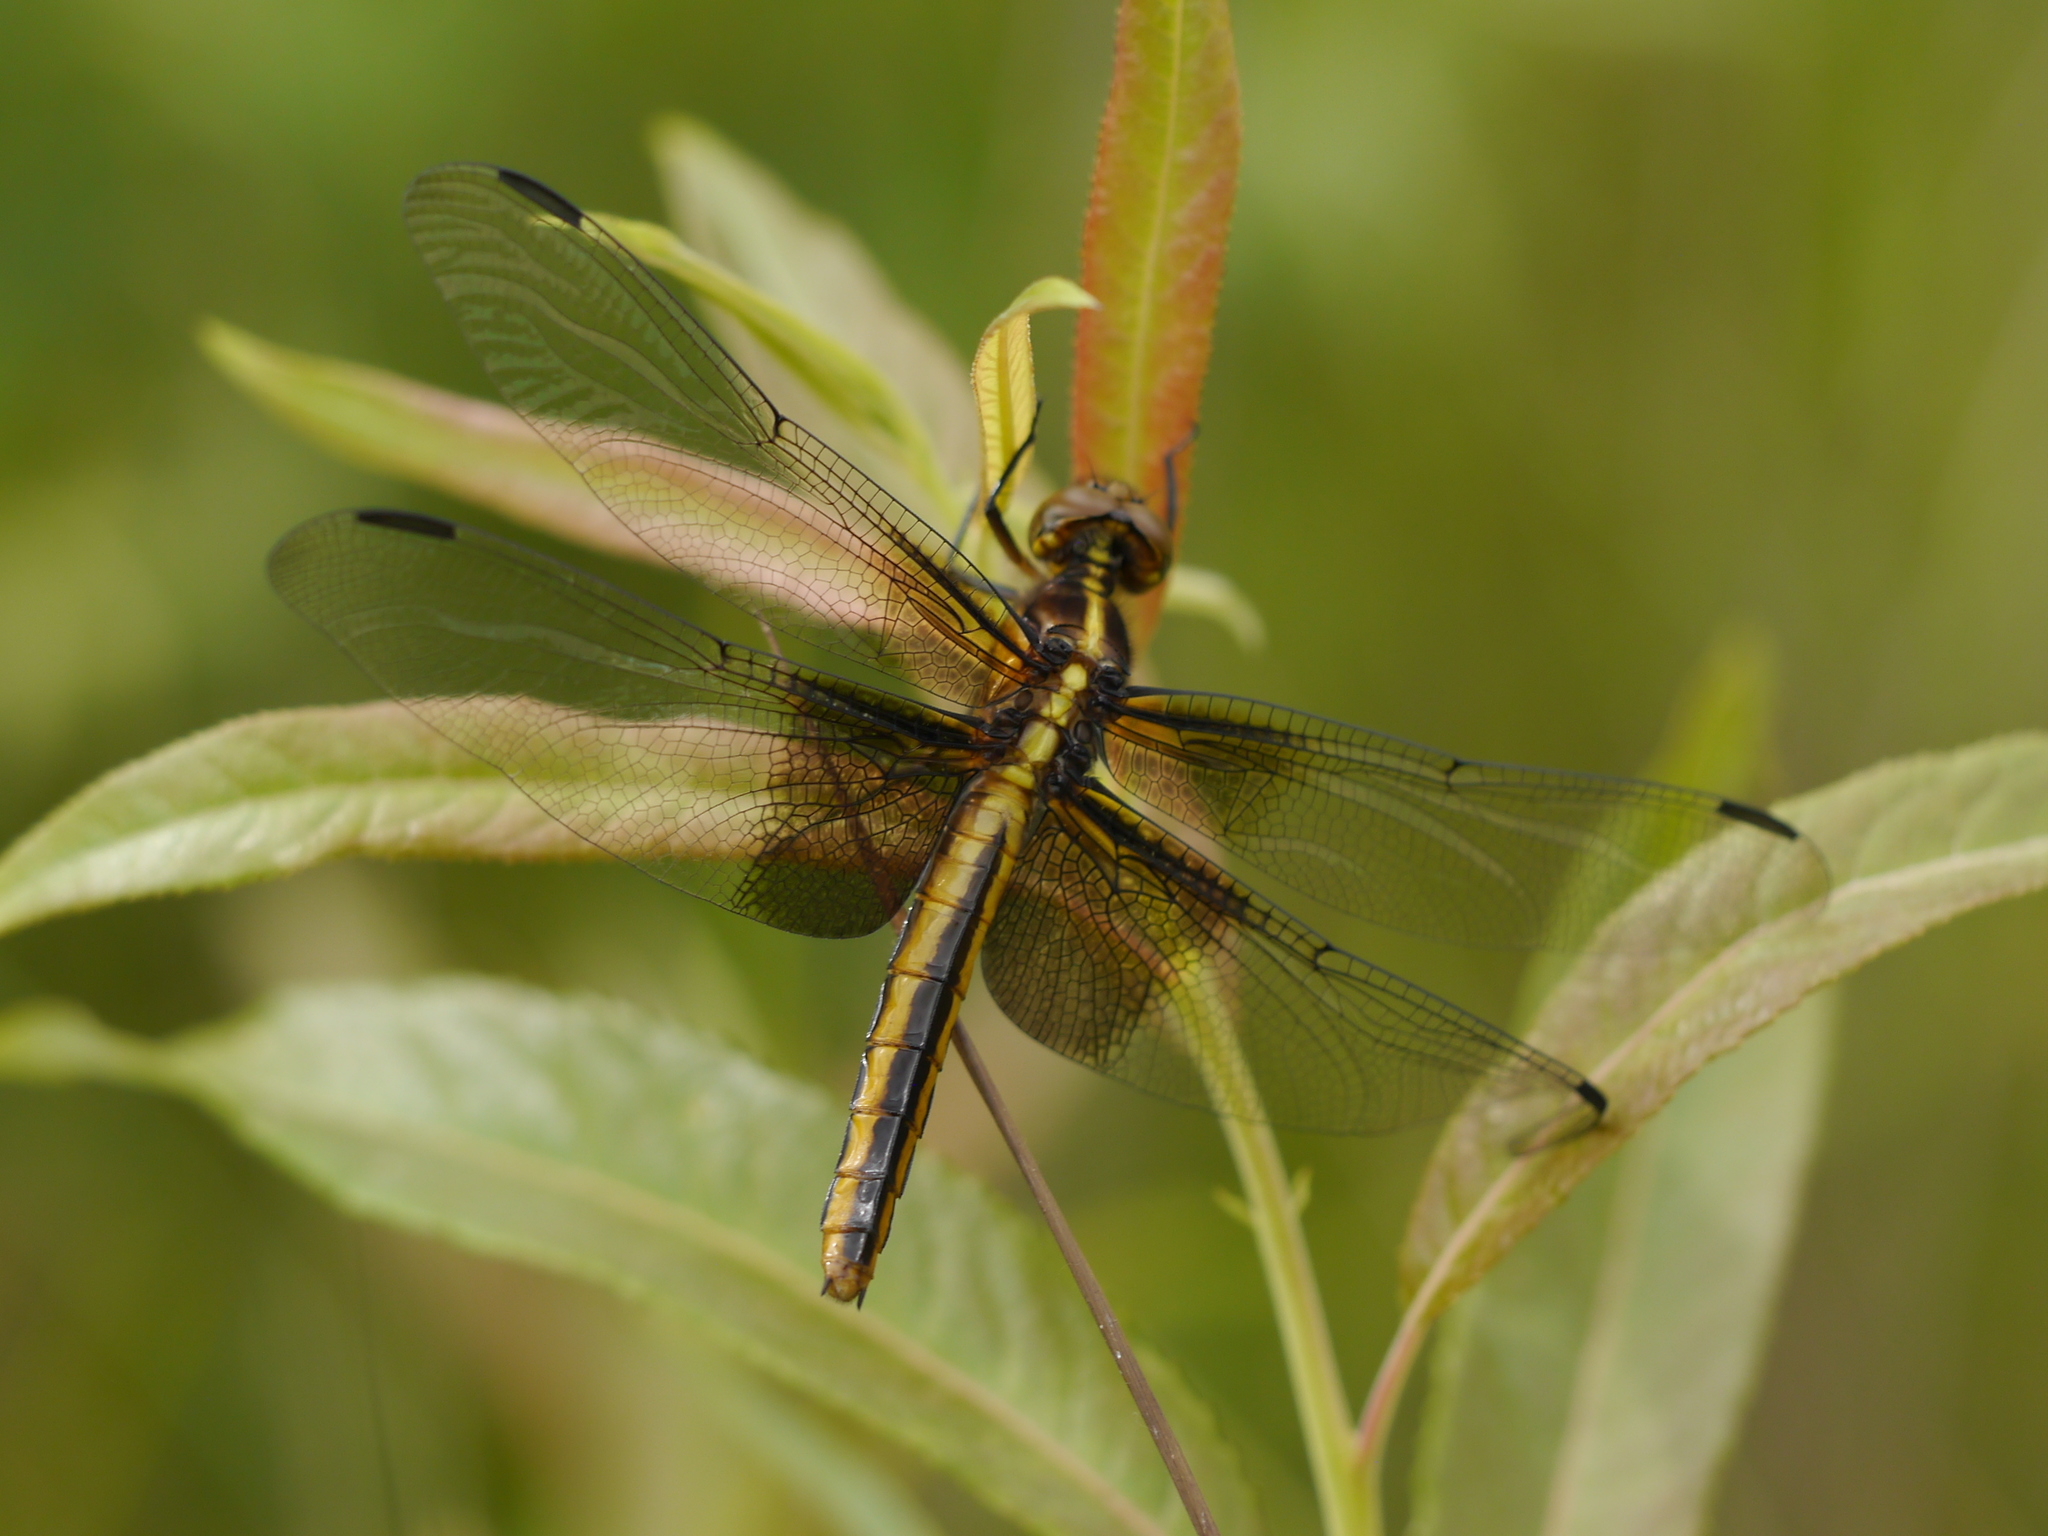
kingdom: Animalia
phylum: Arthropoda
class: Insecta
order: Odonata
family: Libellulidae
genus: Libellula
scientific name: Libellula luctuosa
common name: Widow skimmer
